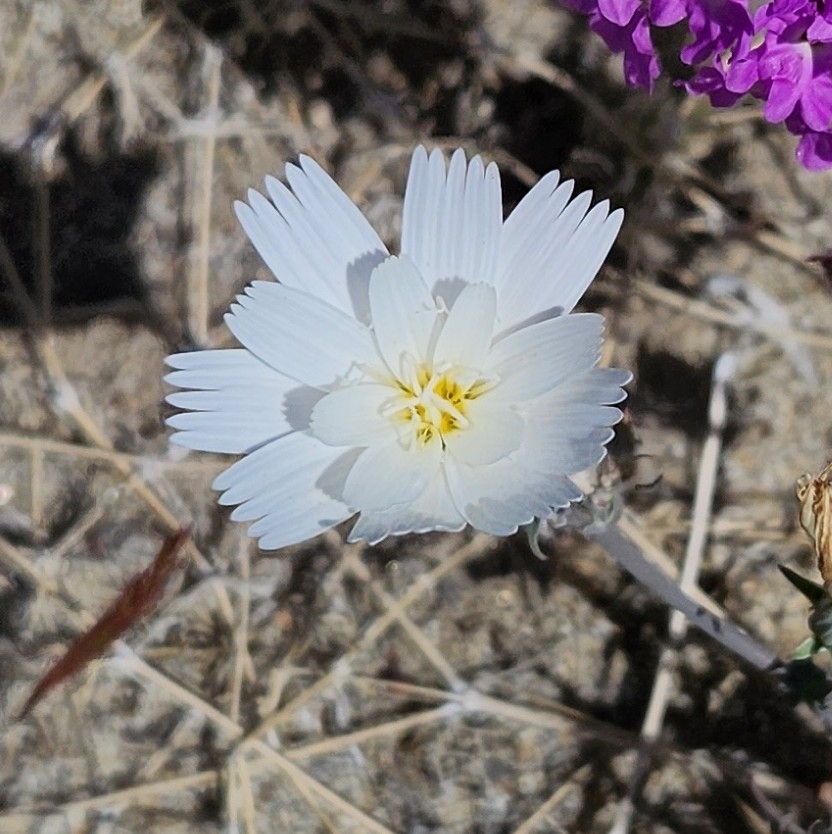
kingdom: Plantae
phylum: Tracheophyta
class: Magnoliopsida
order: Asterales
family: Asteraceae
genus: Rafinesquia
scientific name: Rafinesquia neomexicana
